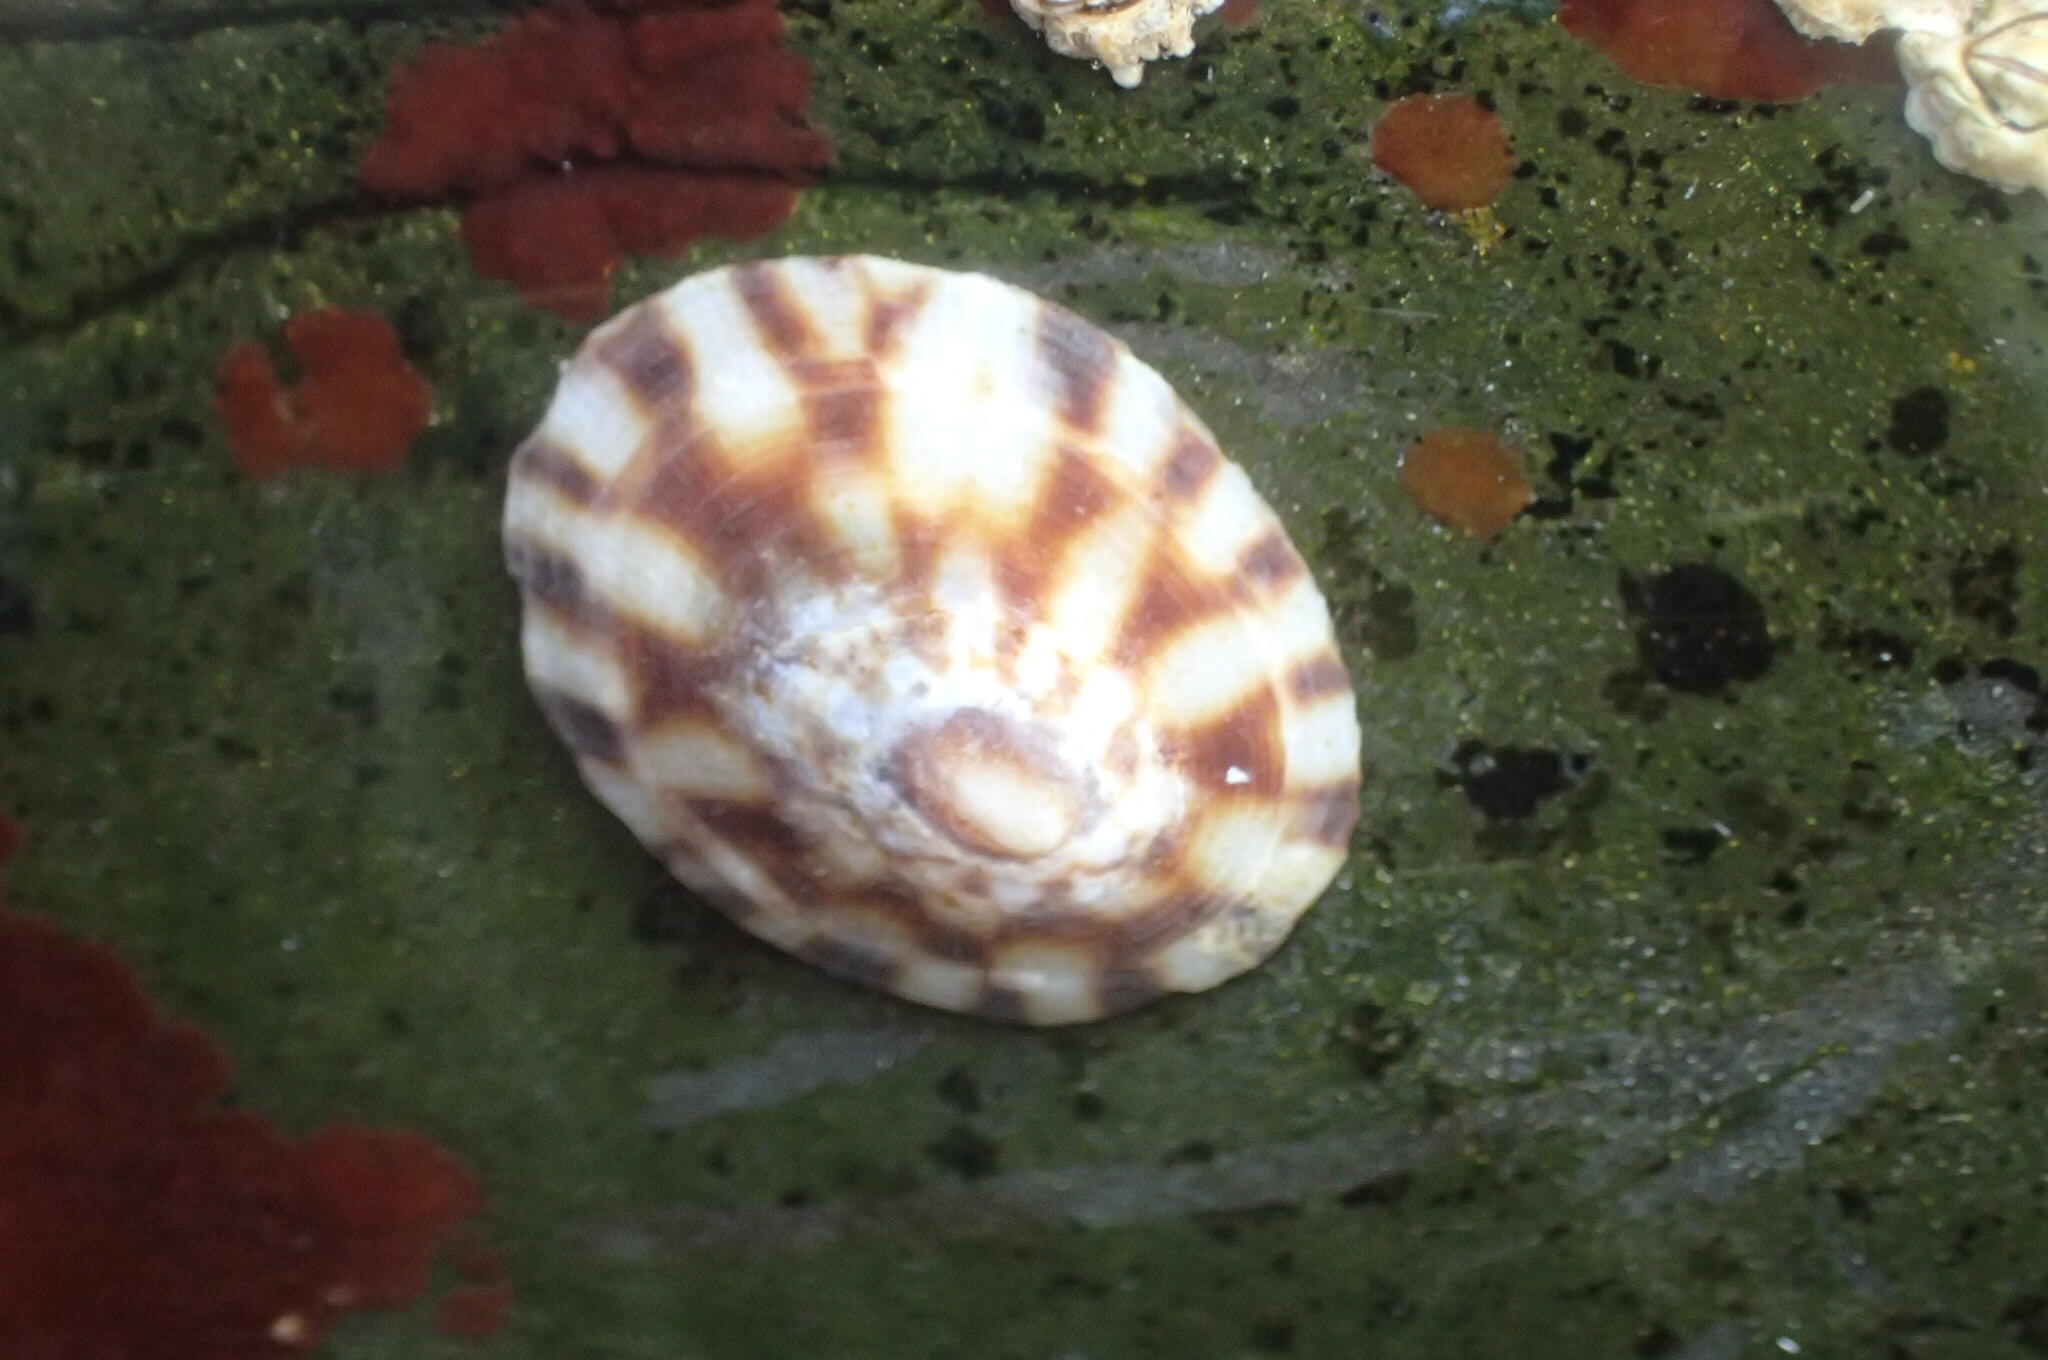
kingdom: Animalia
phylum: Mollusca
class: Gastropoda
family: Lottiidae
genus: Testudinalia
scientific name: Testudinalia testudinalis
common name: Common tortoiseshell limpet
